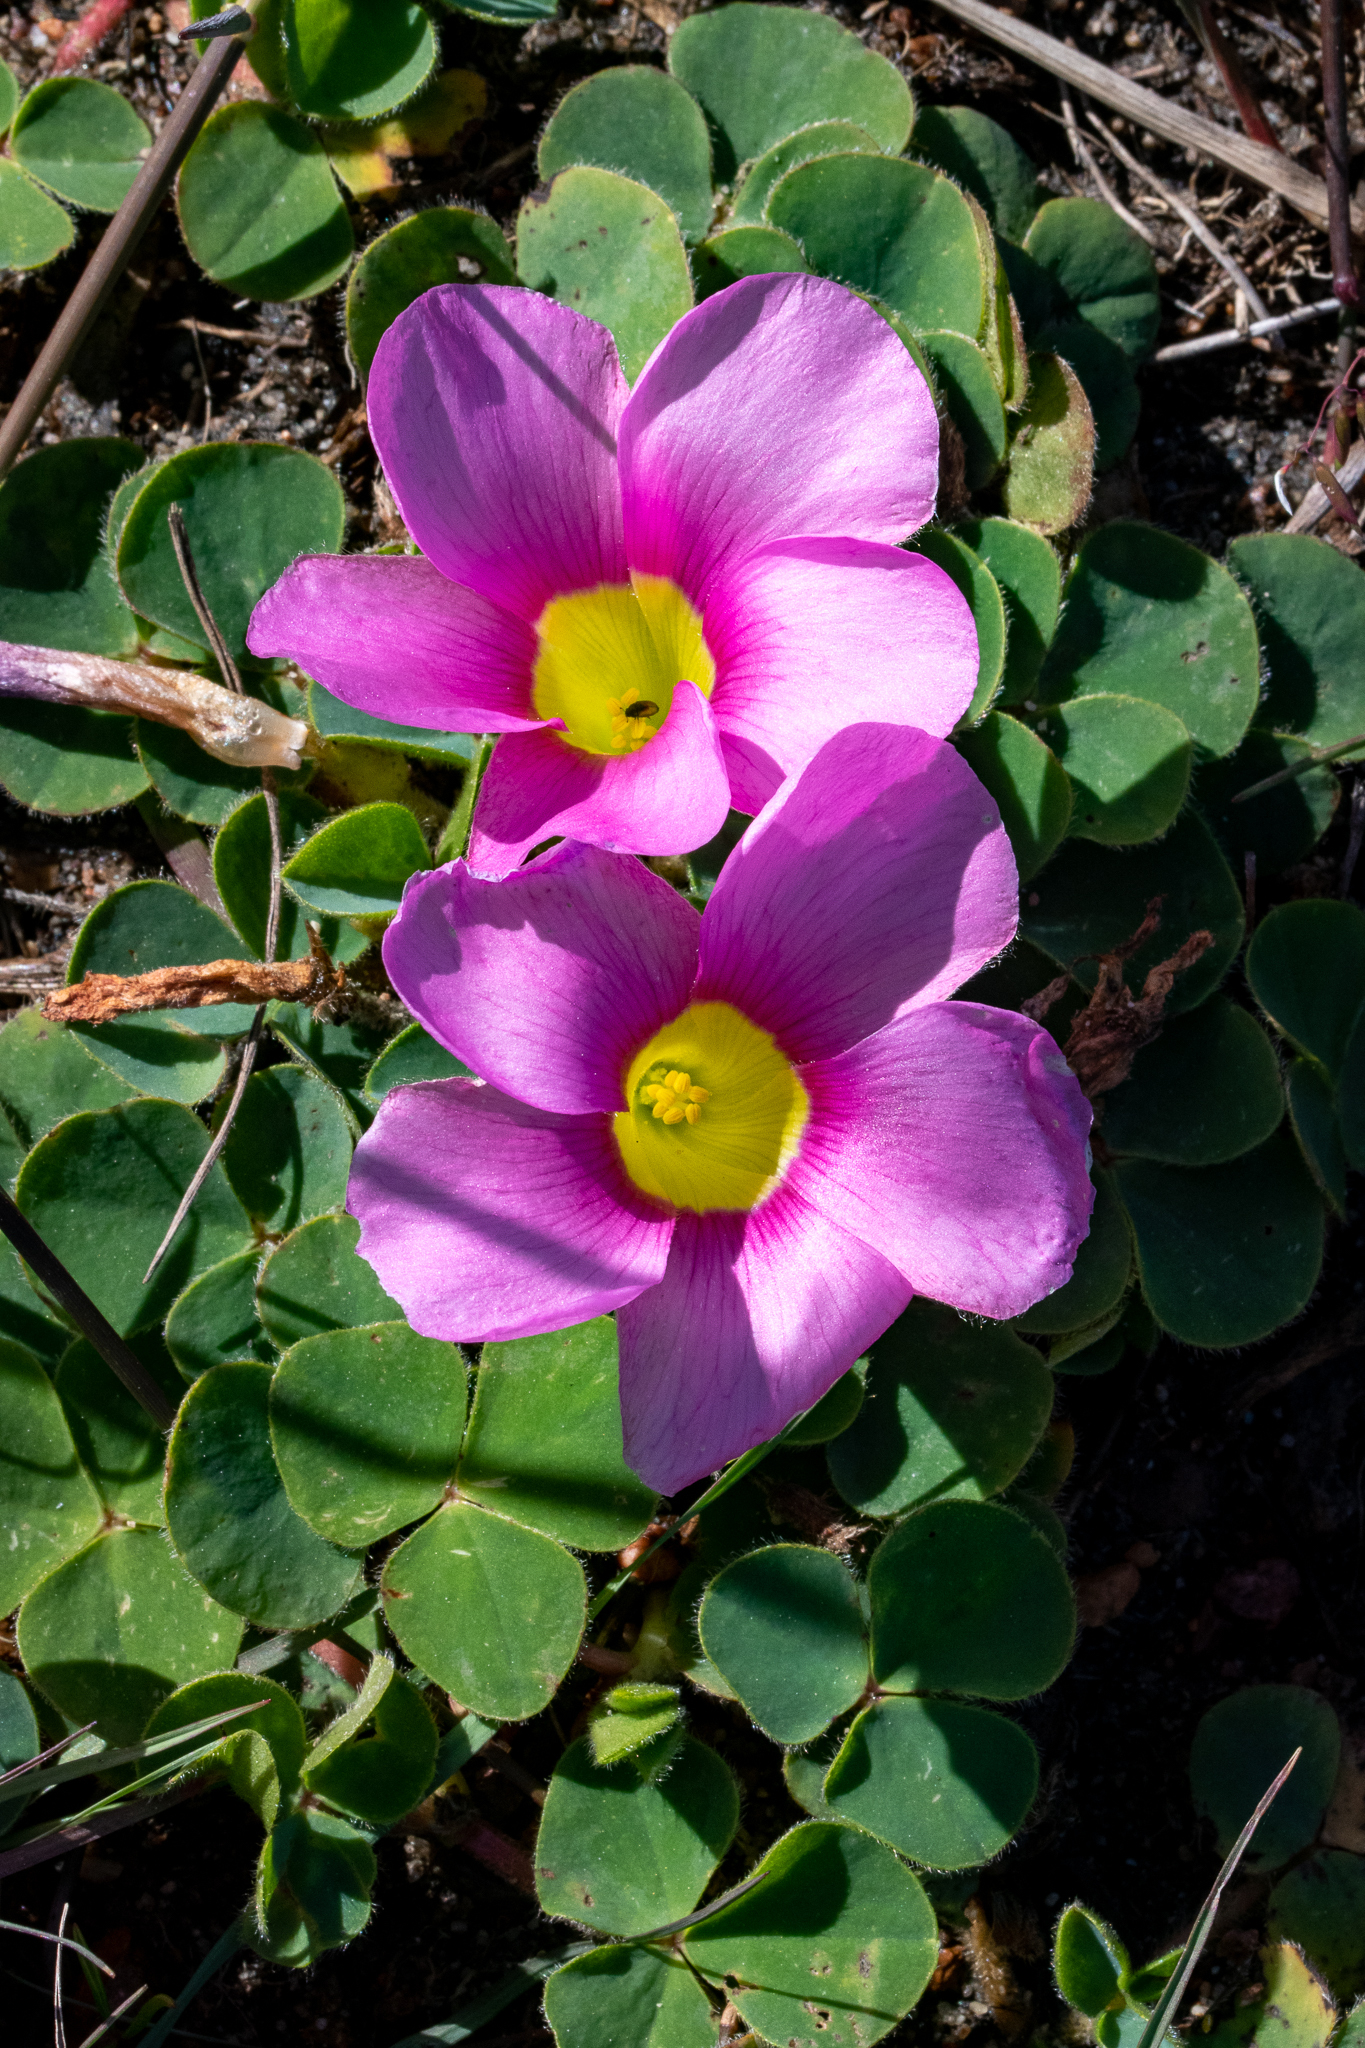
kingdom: Plantae
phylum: Tracheophyta
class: Magnoliopsida
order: Oxalidales
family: Oxalidaceae
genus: Oxalis
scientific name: Oxalis purpurea
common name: Purple woodsorrel
